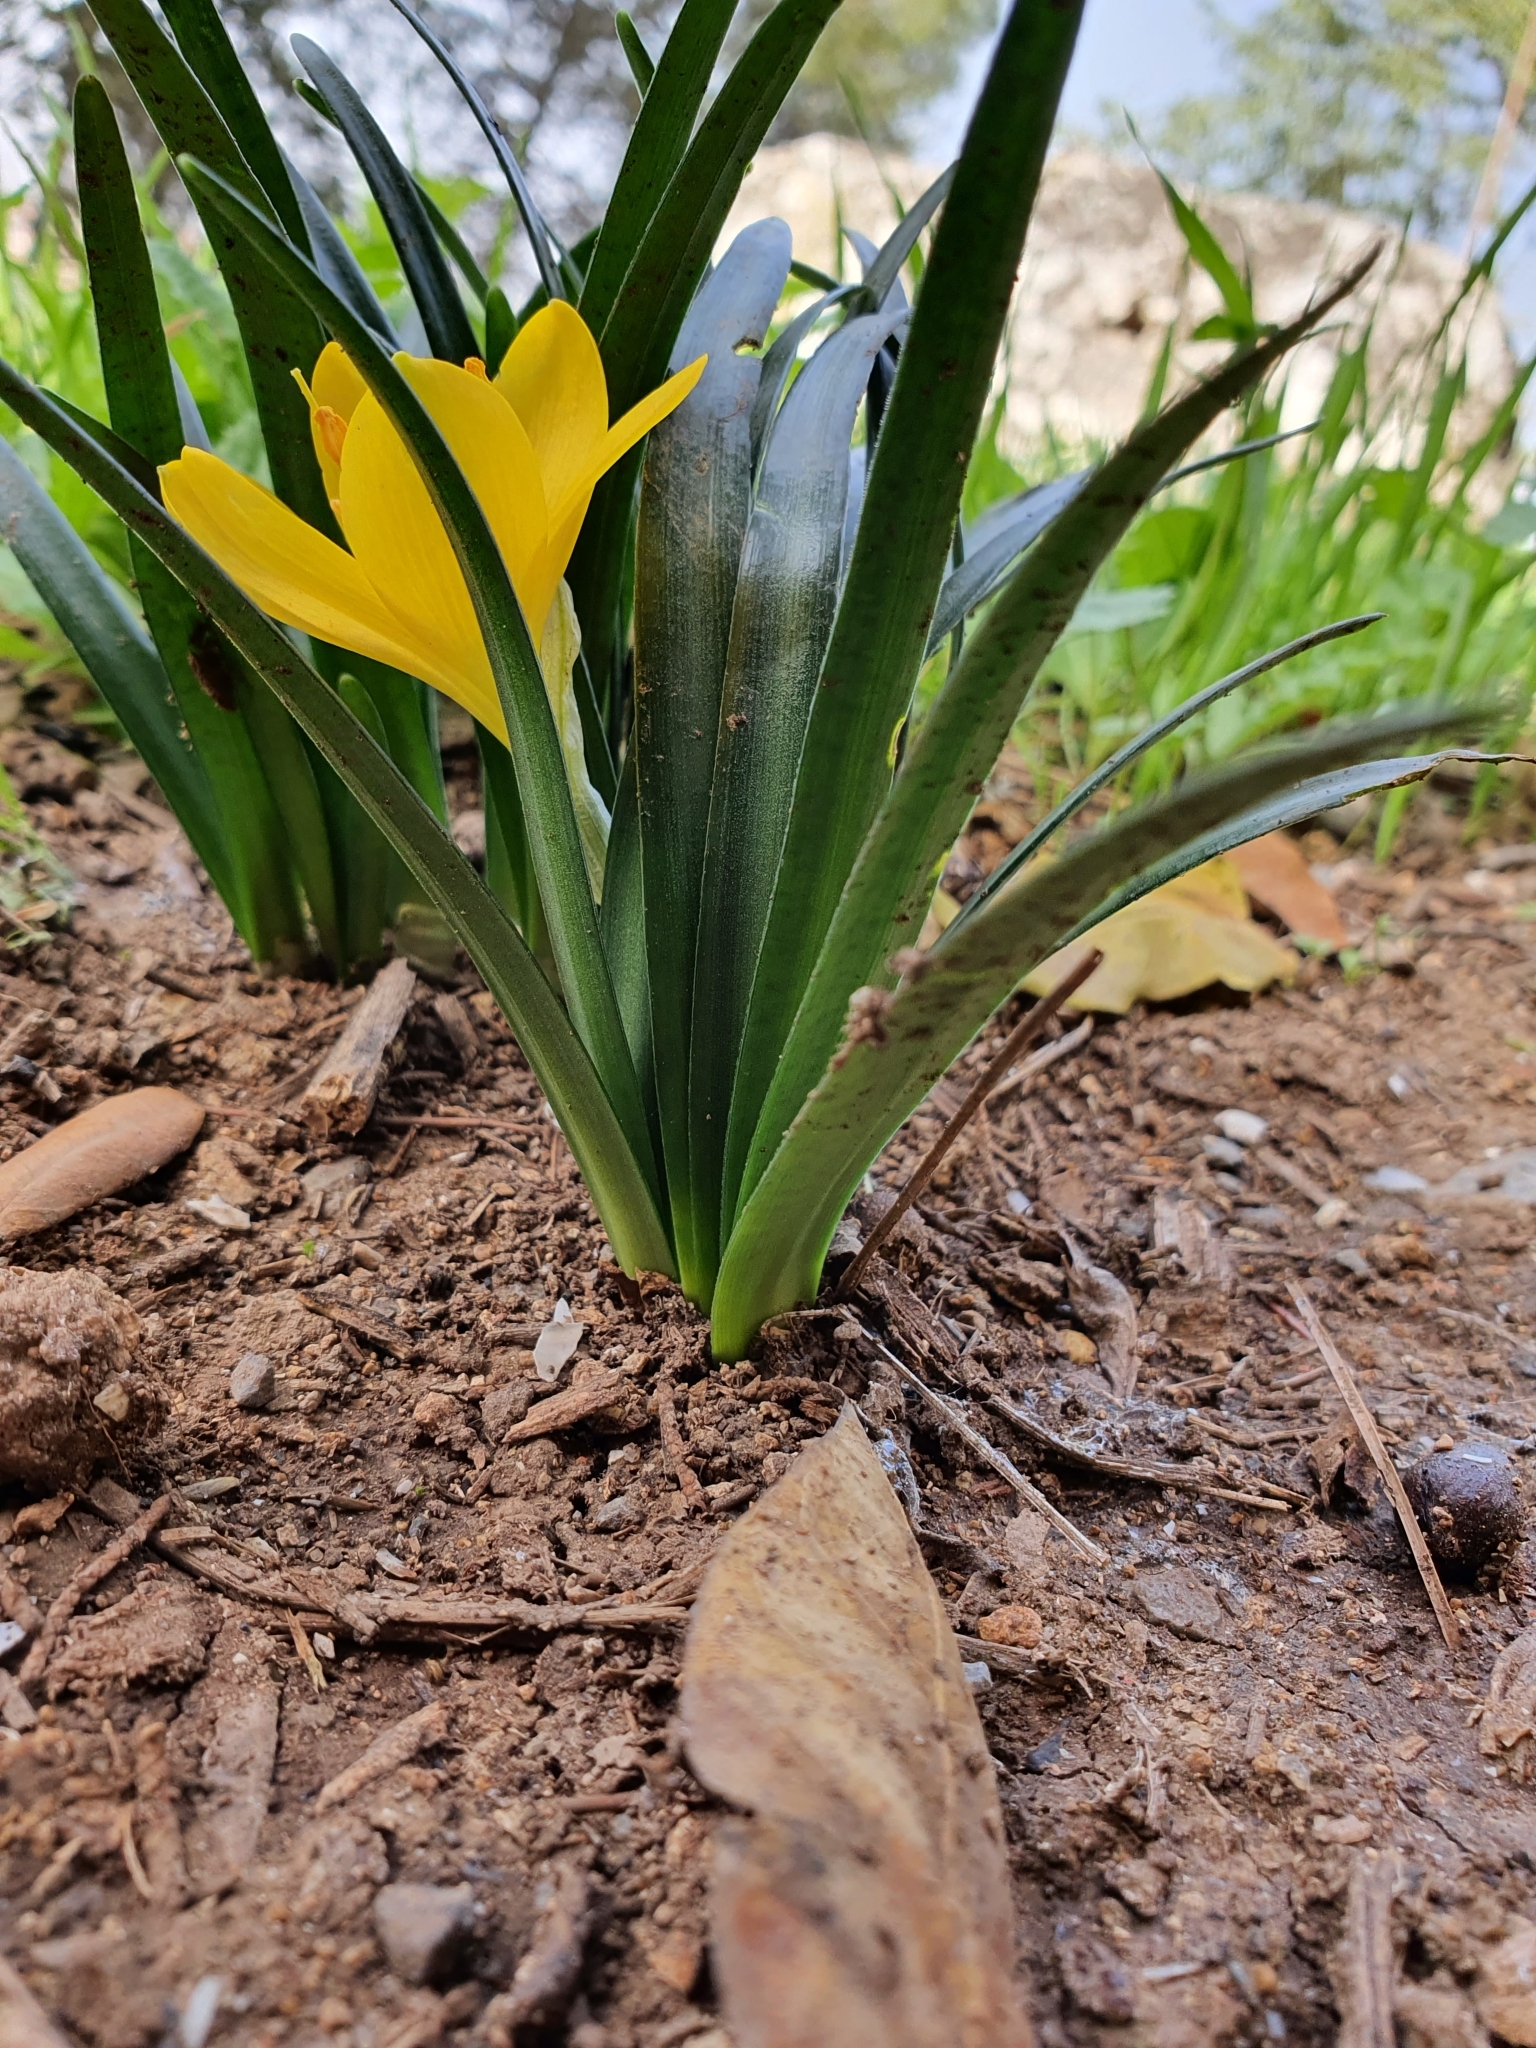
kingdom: Plantae
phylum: Tracheophyta
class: Liliopsida
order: Asparagales
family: Amaryllidaceae
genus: Sternbergia
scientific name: Sternbergia lutea
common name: Winter daffodil
